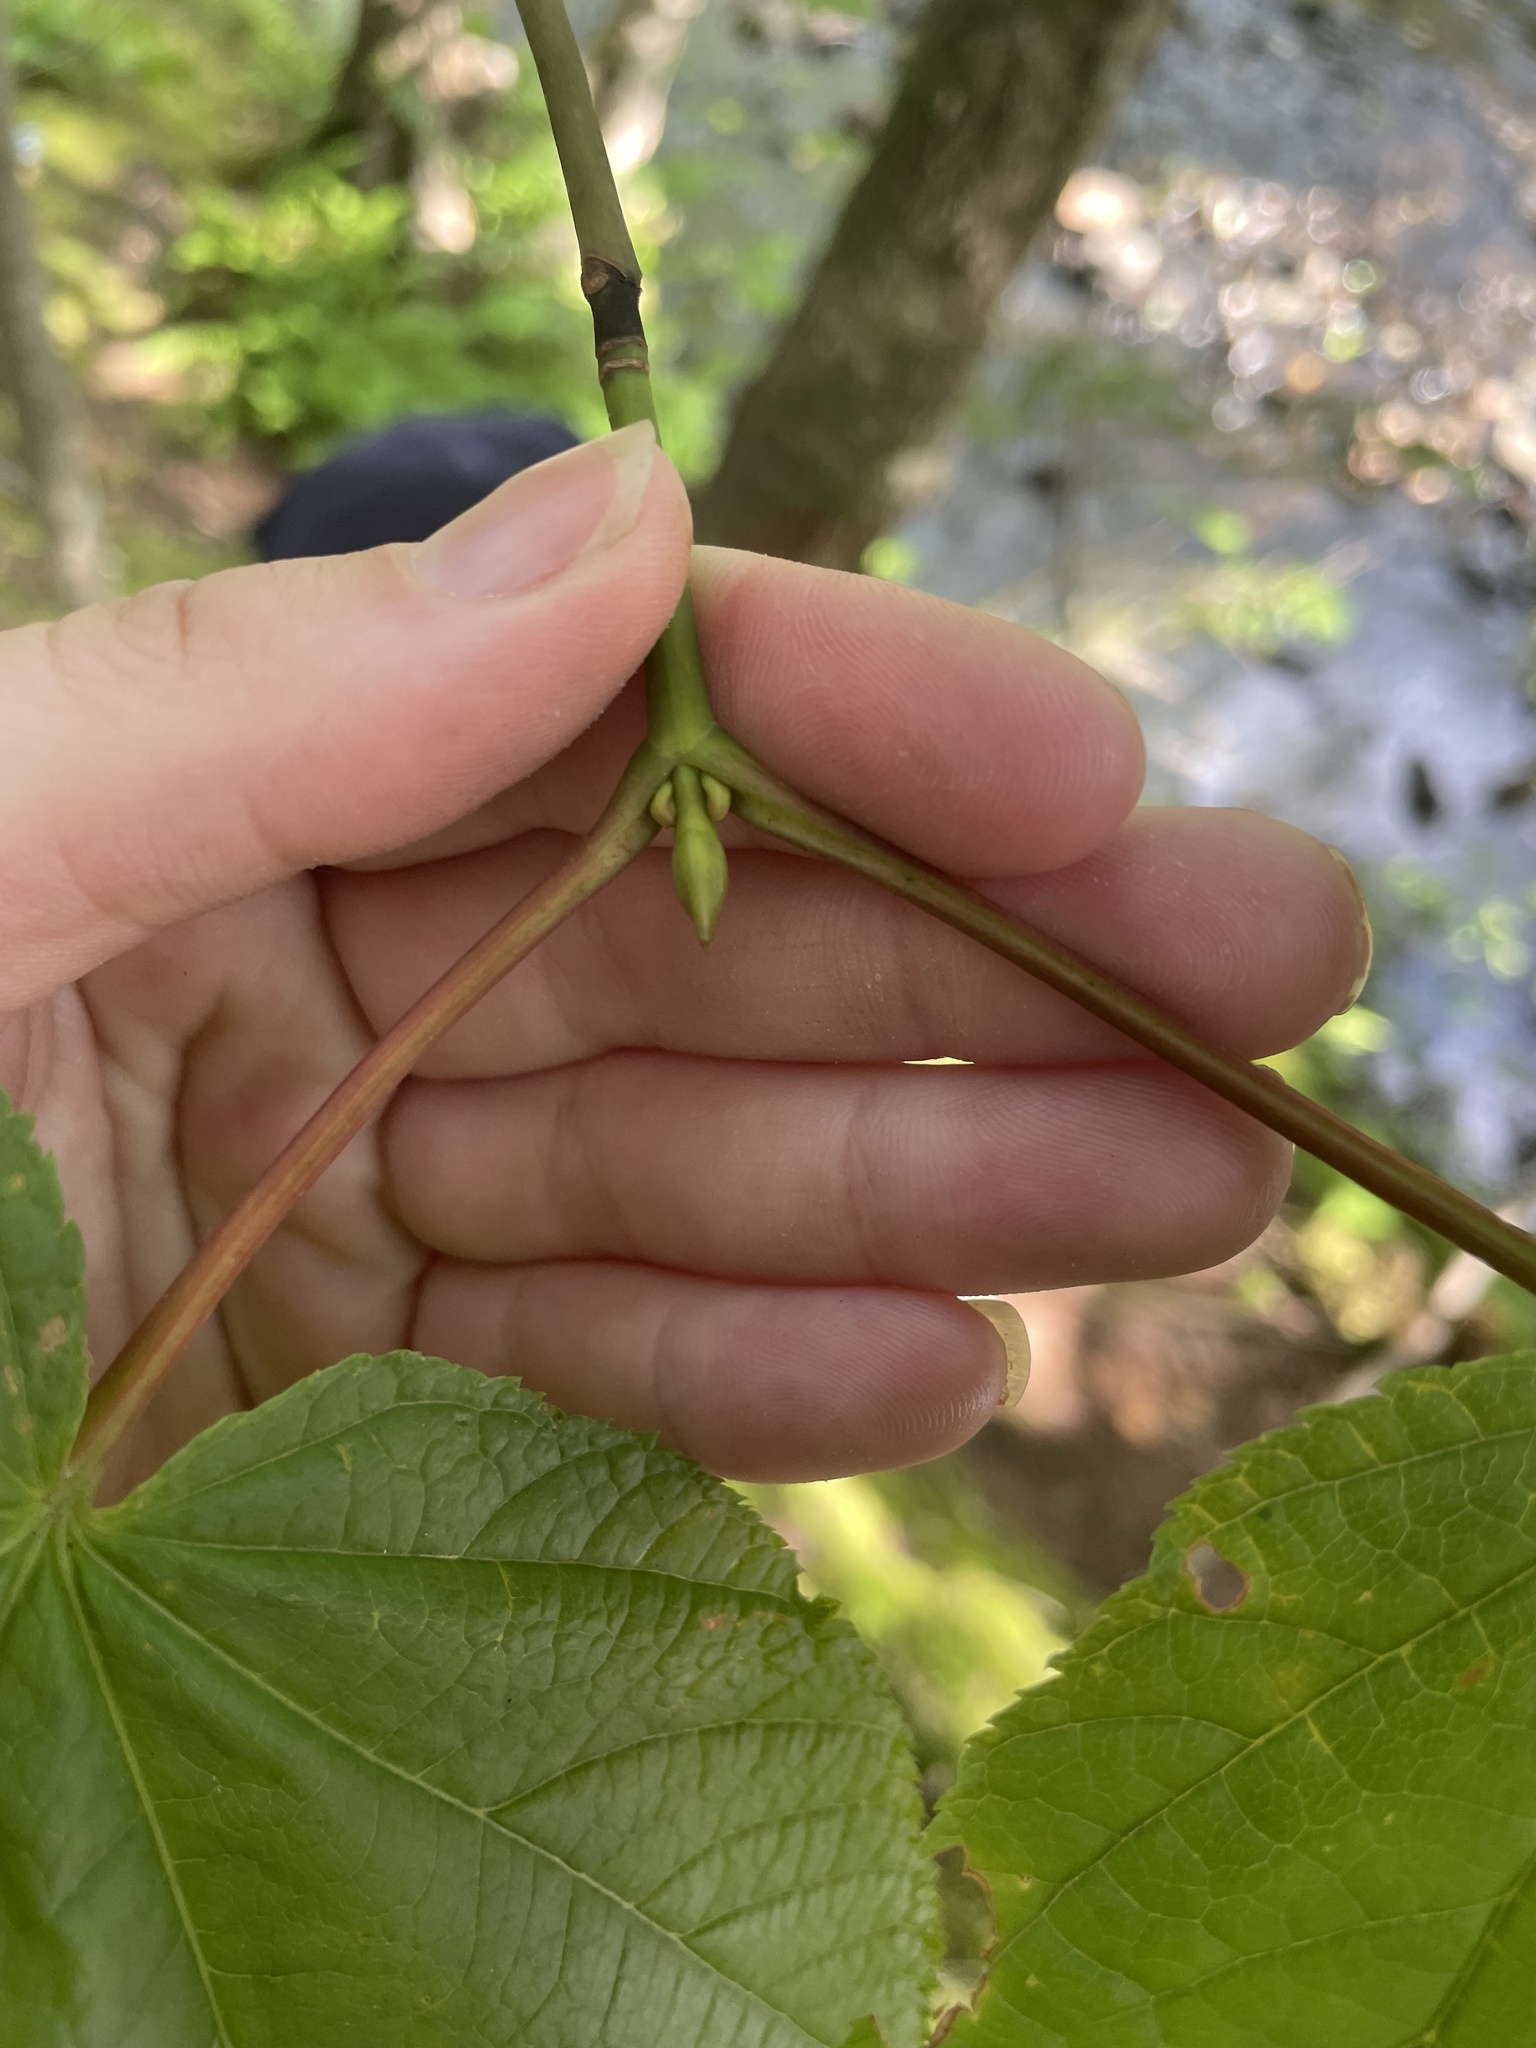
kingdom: Plantae
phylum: Tracheophyta
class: Magnoliopsida
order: Sapindales
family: Sapindaceae
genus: Acer
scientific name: Acer pensylvanicum
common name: Moosewood
